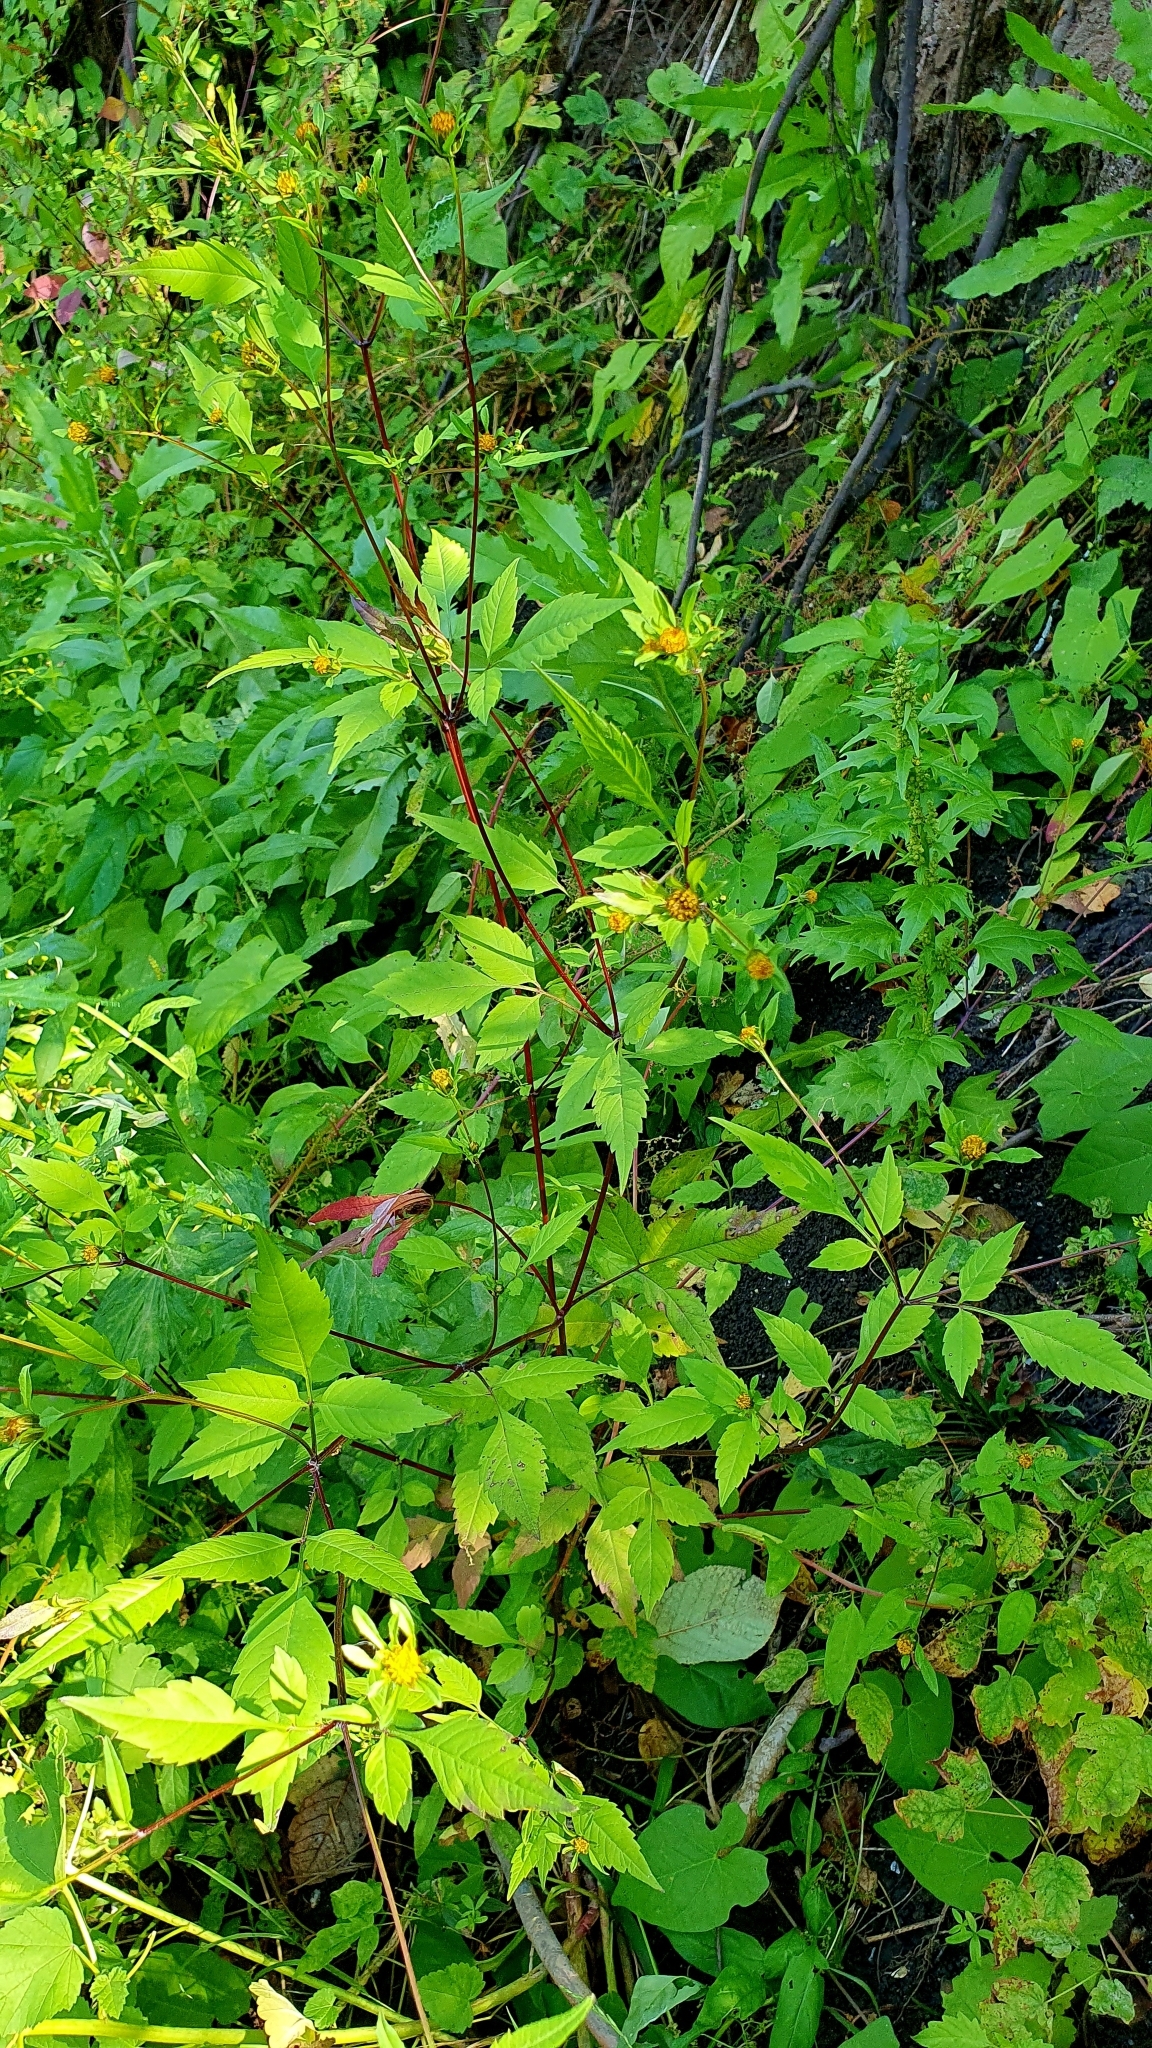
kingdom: Plantae
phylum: Tracheophyta
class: Magnoliopsida
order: Asterales
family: Asteraceae
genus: Bidens
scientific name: Bidens frondosa
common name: Beggarticks
